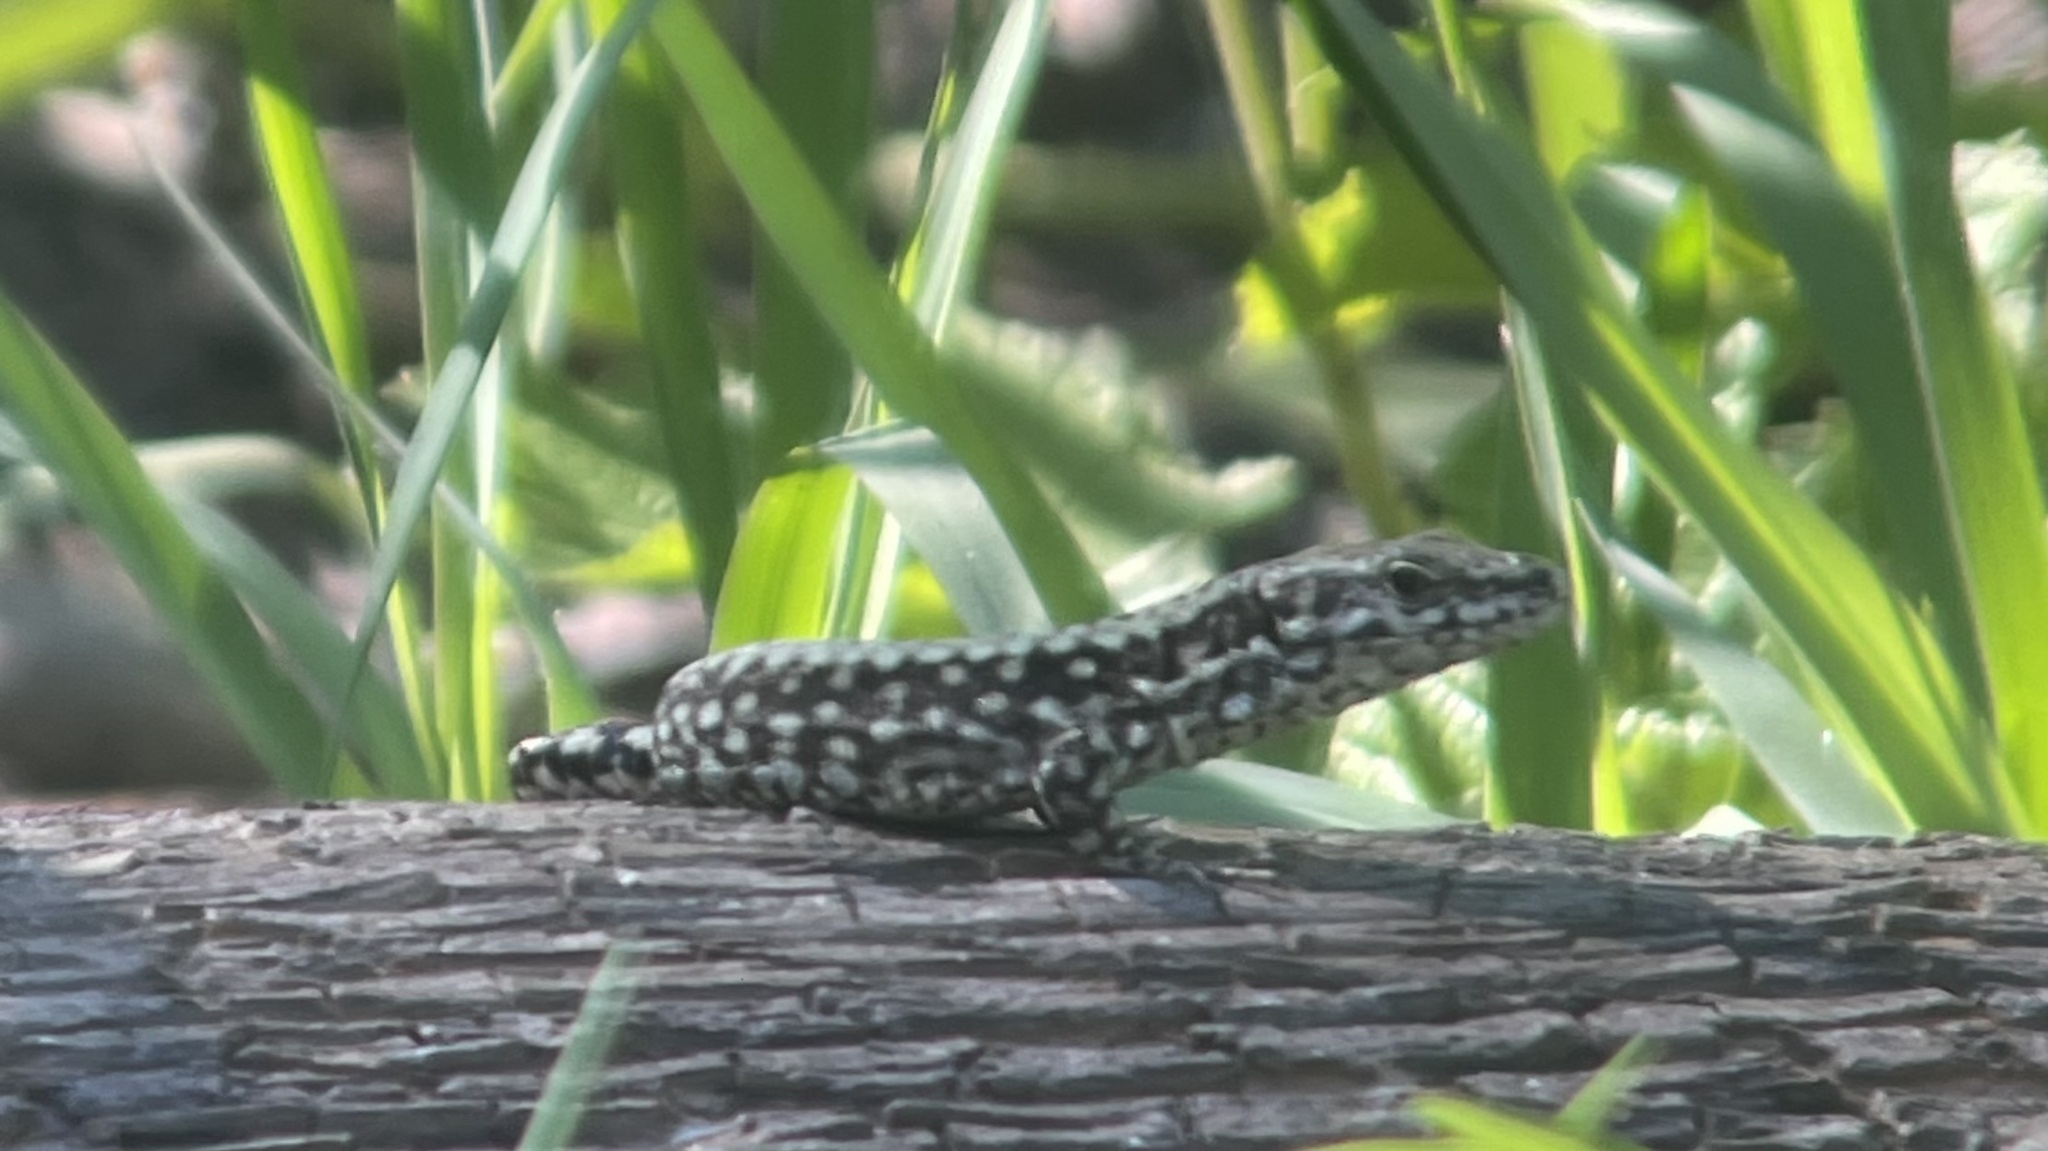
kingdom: Animalia
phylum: Chordata
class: Squamata
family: Lacertidae
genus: Podarcis
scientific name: Podarcis muralis
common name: Common wall lizard
